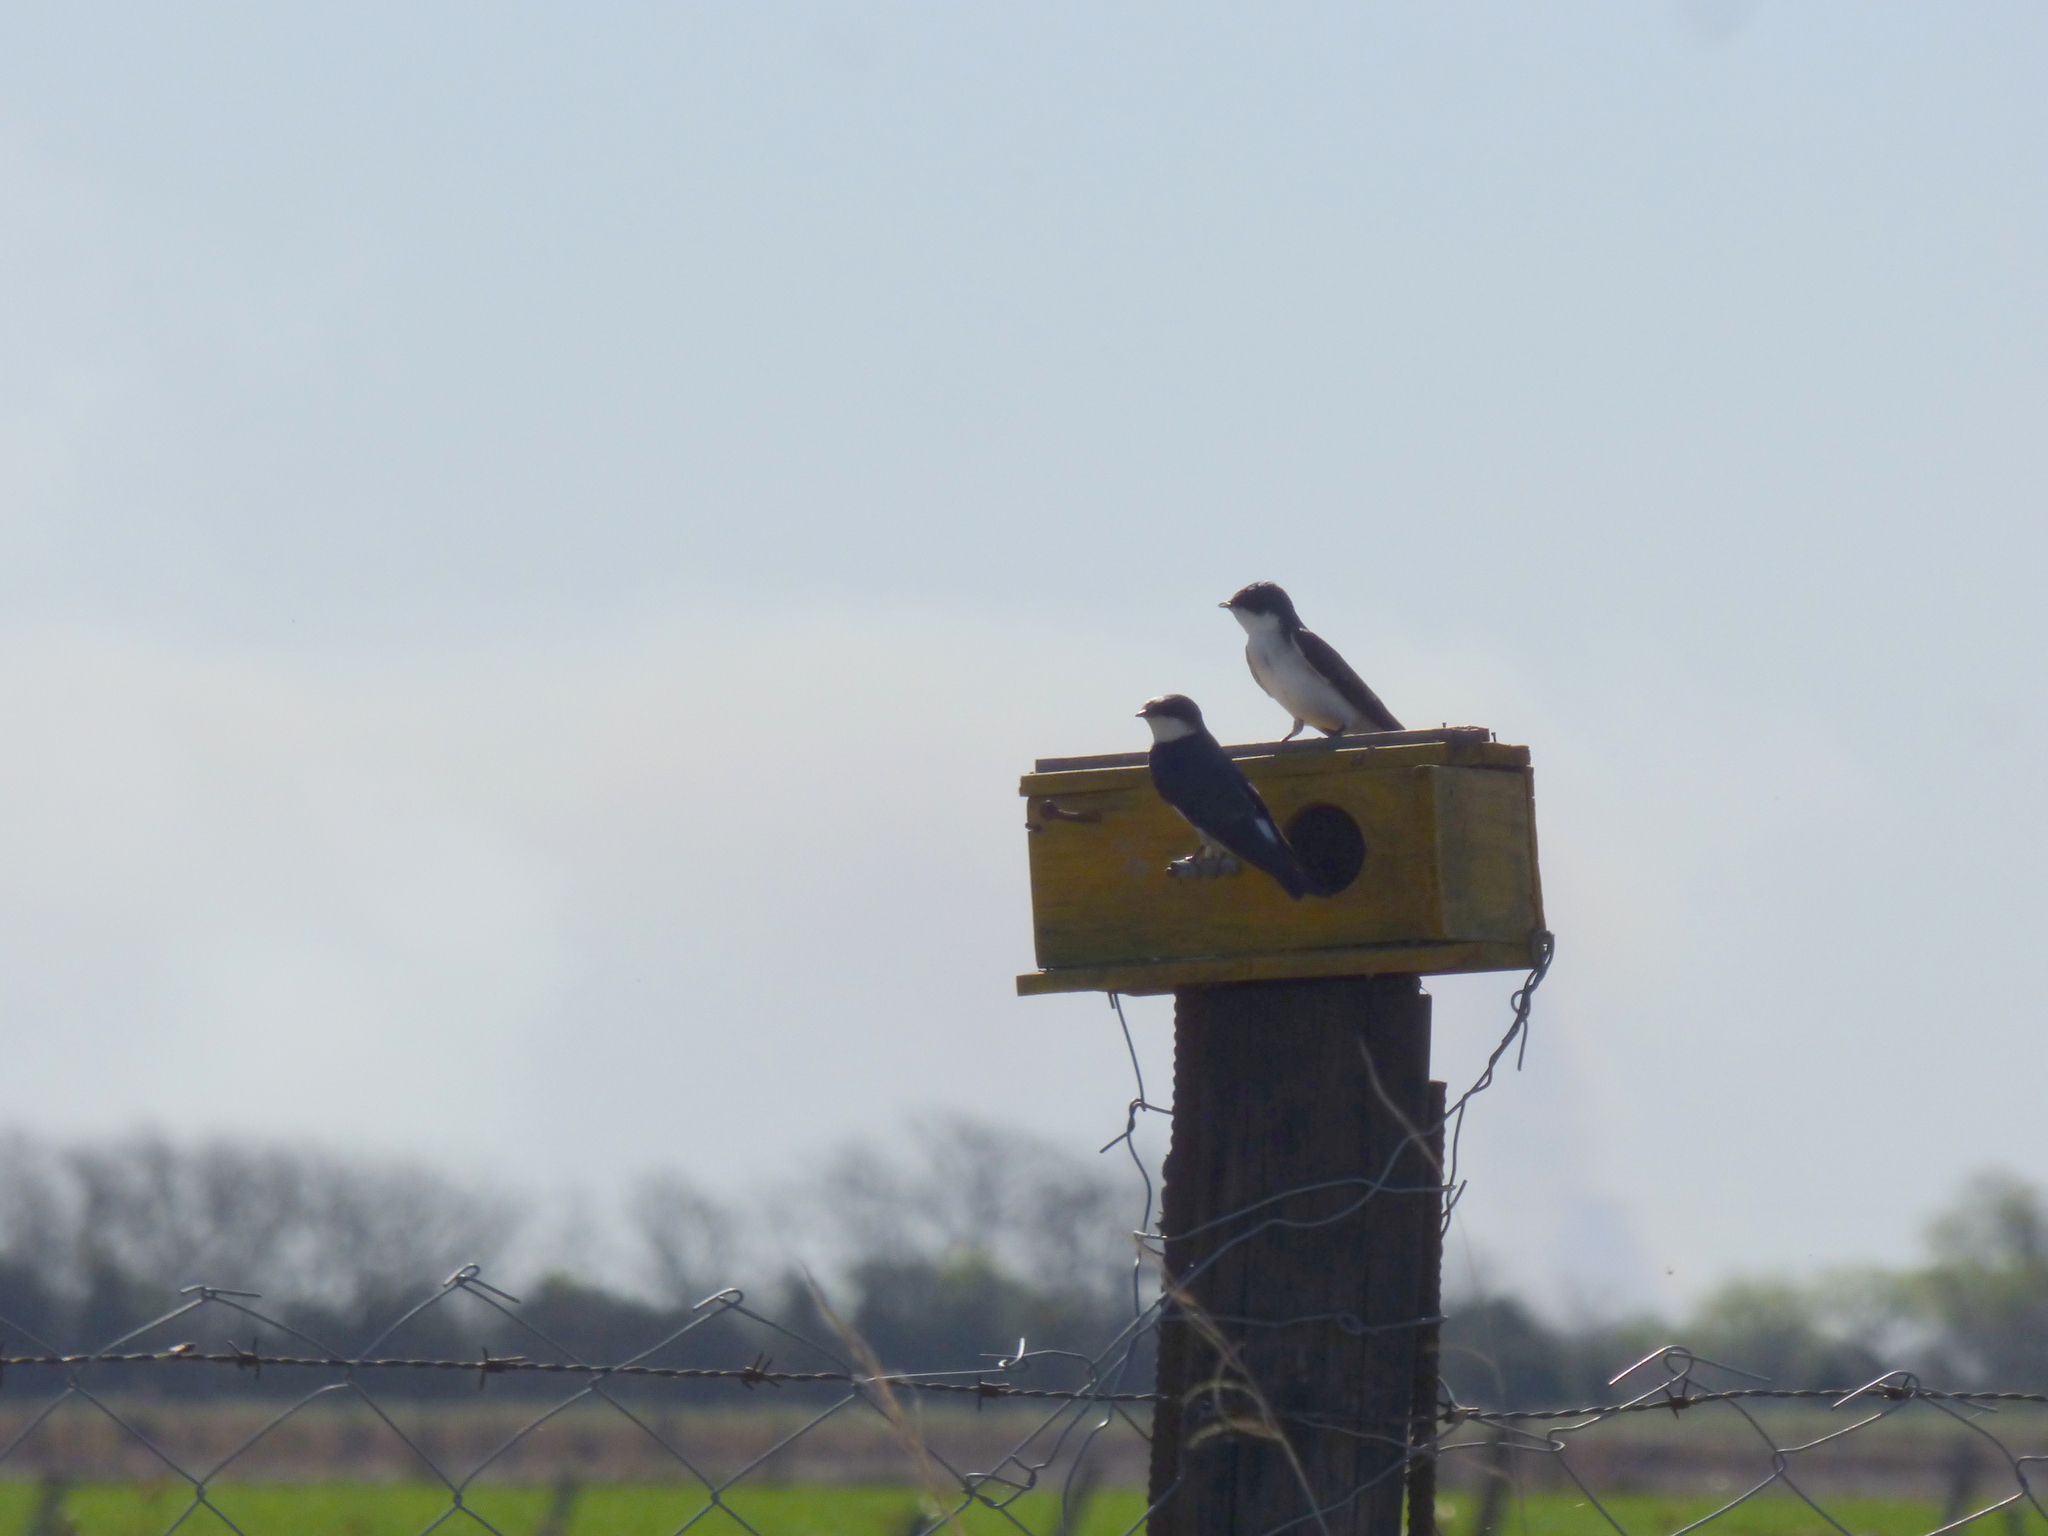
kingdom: Animalia
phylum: Chordata
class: Aves
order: Passeriformes
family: Hirundinidae
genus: Tachycineta
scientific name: Tachycineta leucorrhoa
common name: White-rumped swallow
